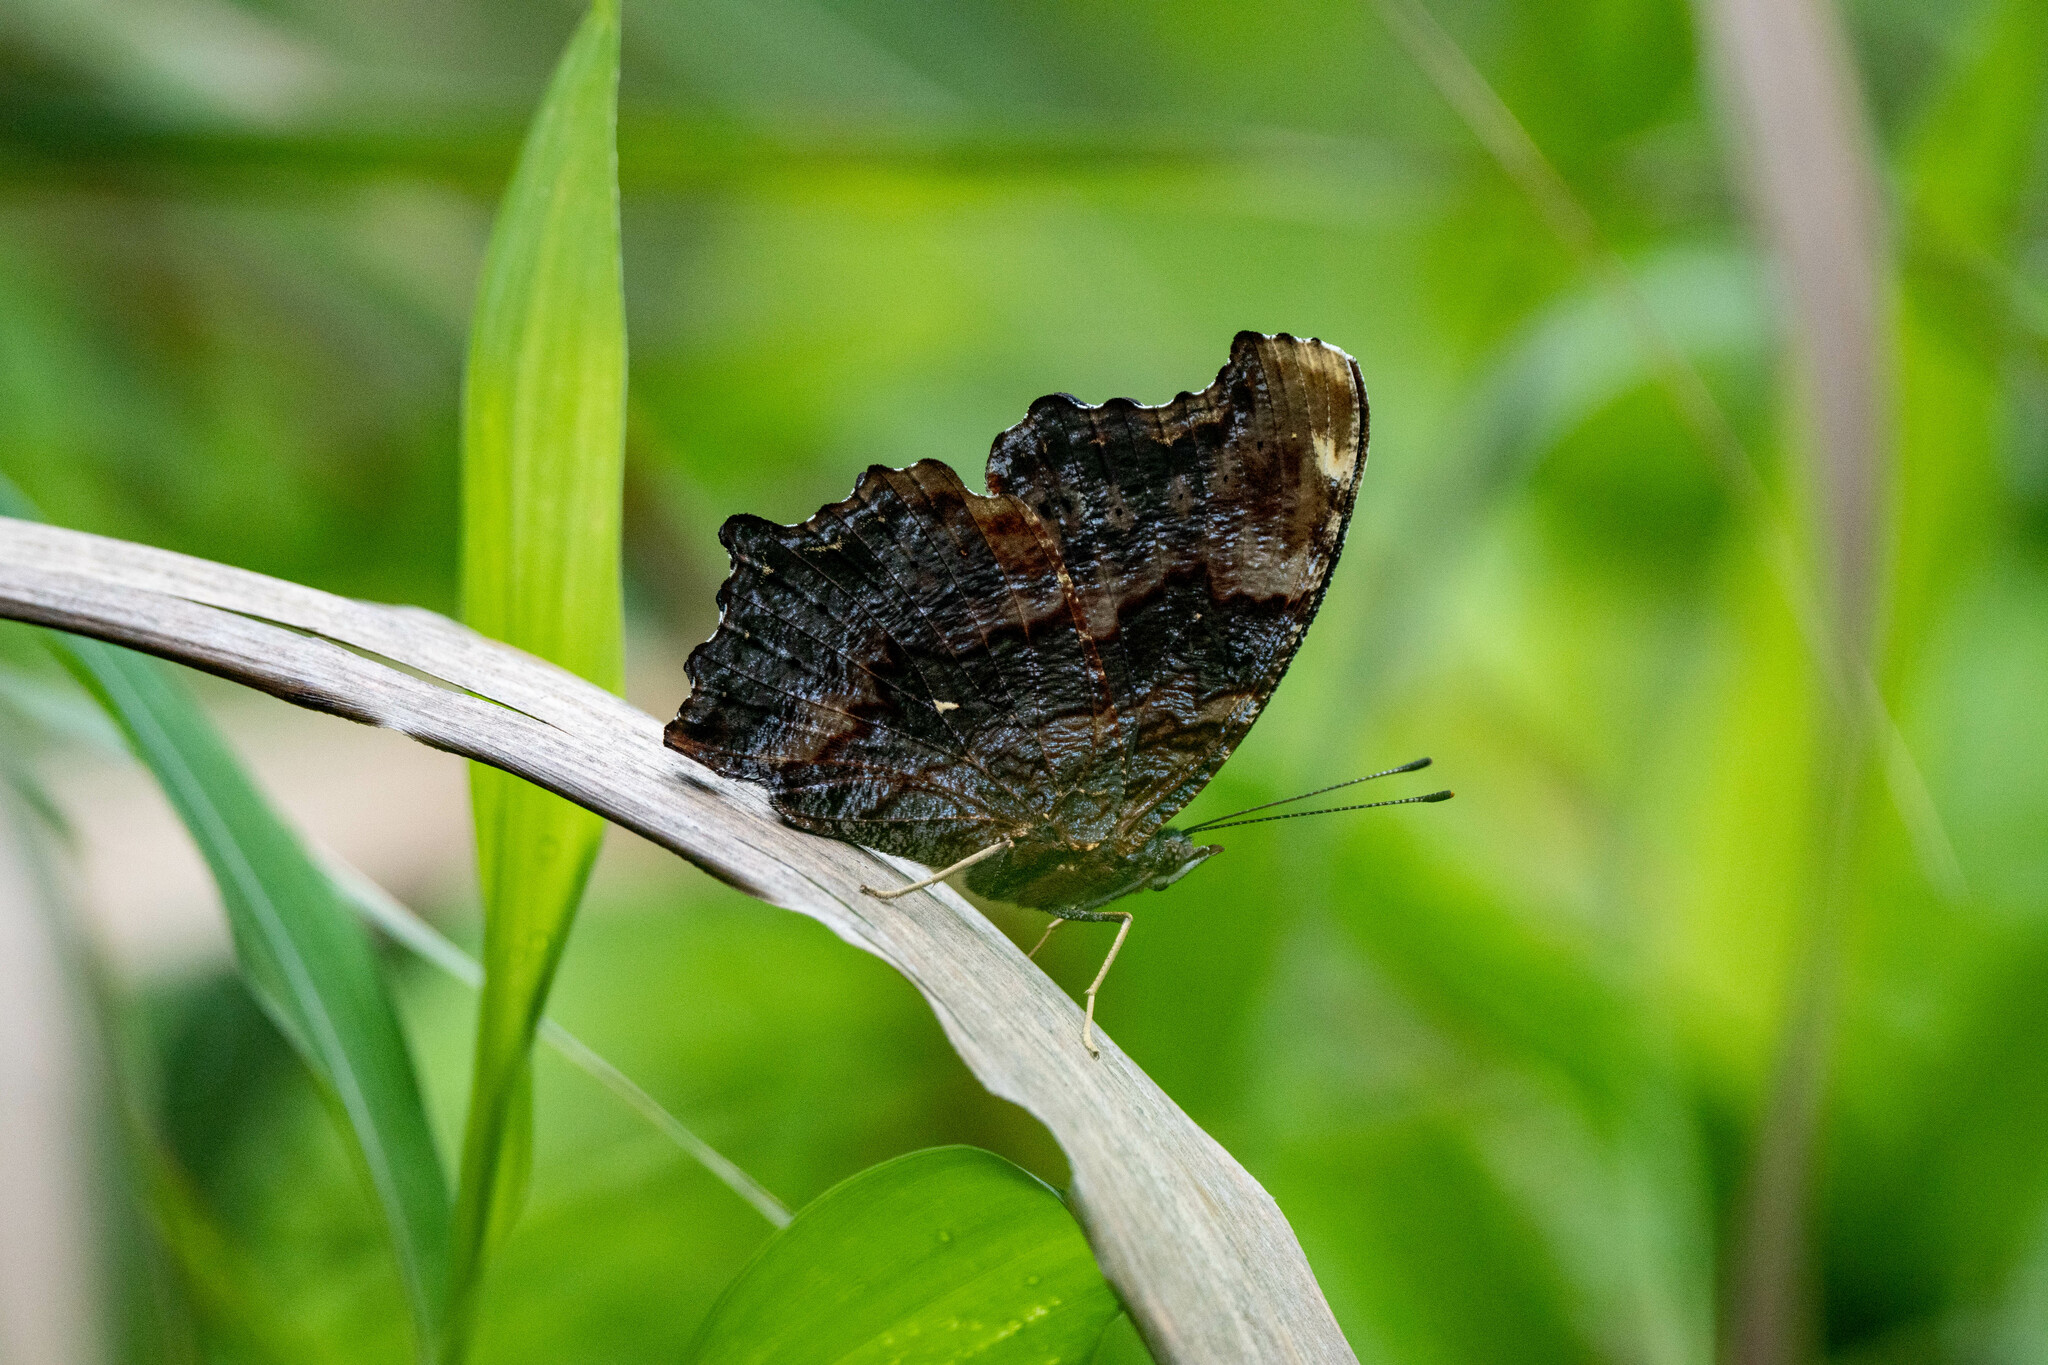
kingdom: Animalia
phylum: Arthropoda
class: Insecta
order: Lepidoptera
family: Nymphalidae
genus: Vanessa
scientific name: Vanessa Kaniska canace
